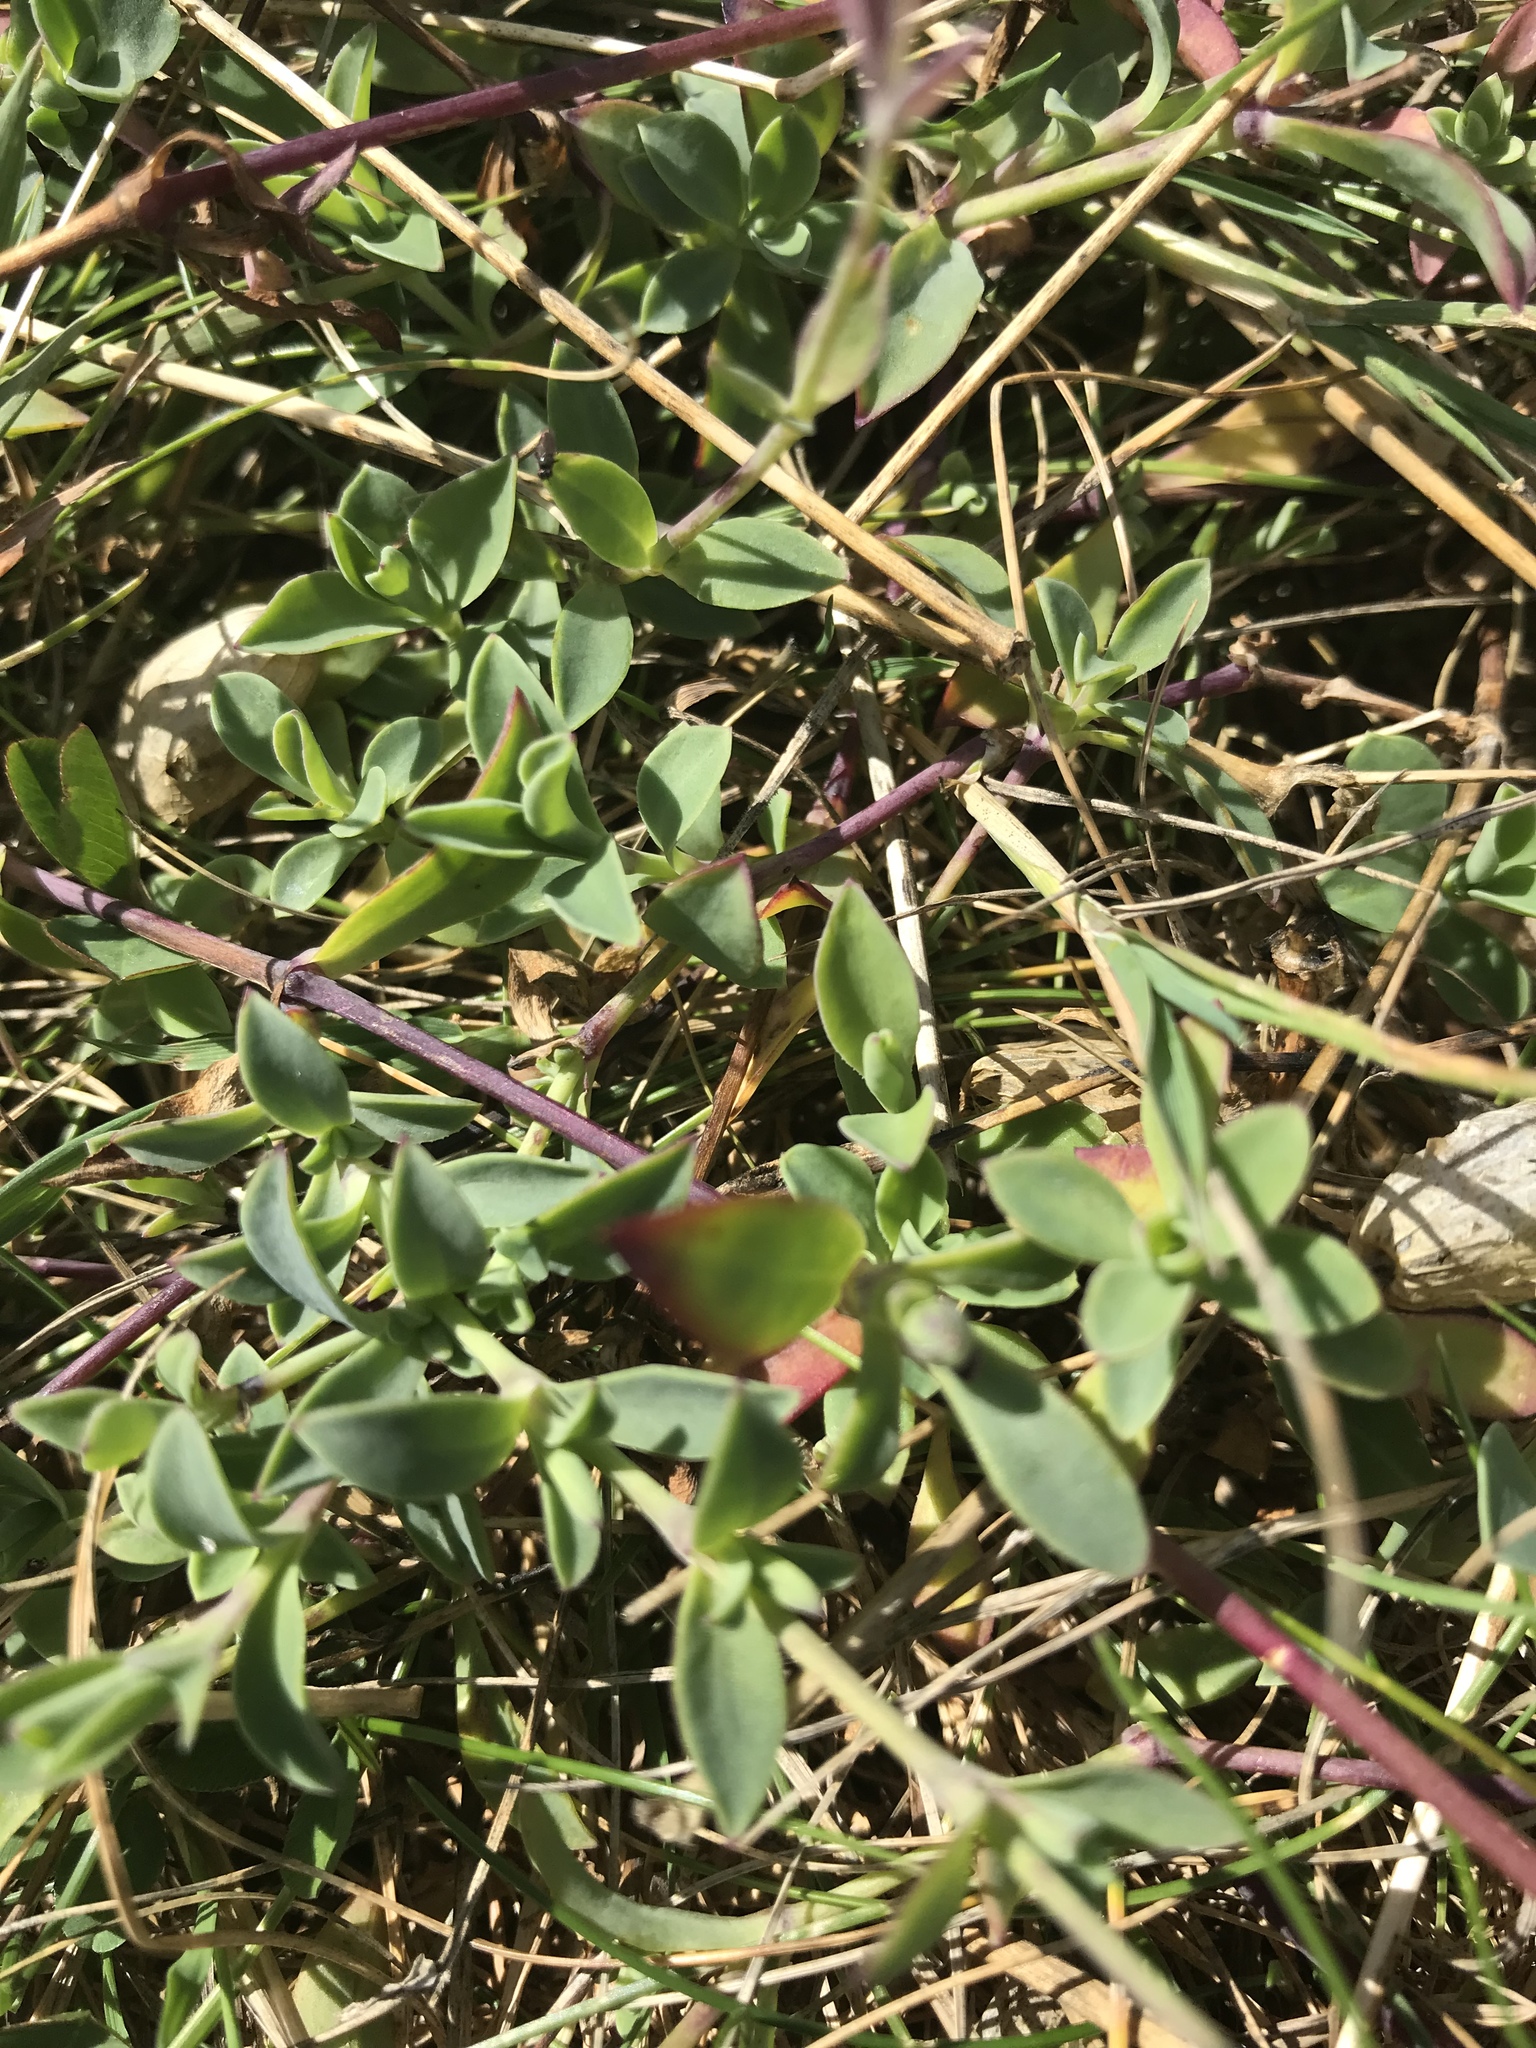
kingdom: Plantae
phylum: Tracheophyta
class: Magnoliopsida
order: Caryophyllales
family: Caryophyllaceae
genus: Silene
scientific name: Silene uniflora
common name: Sea campion
